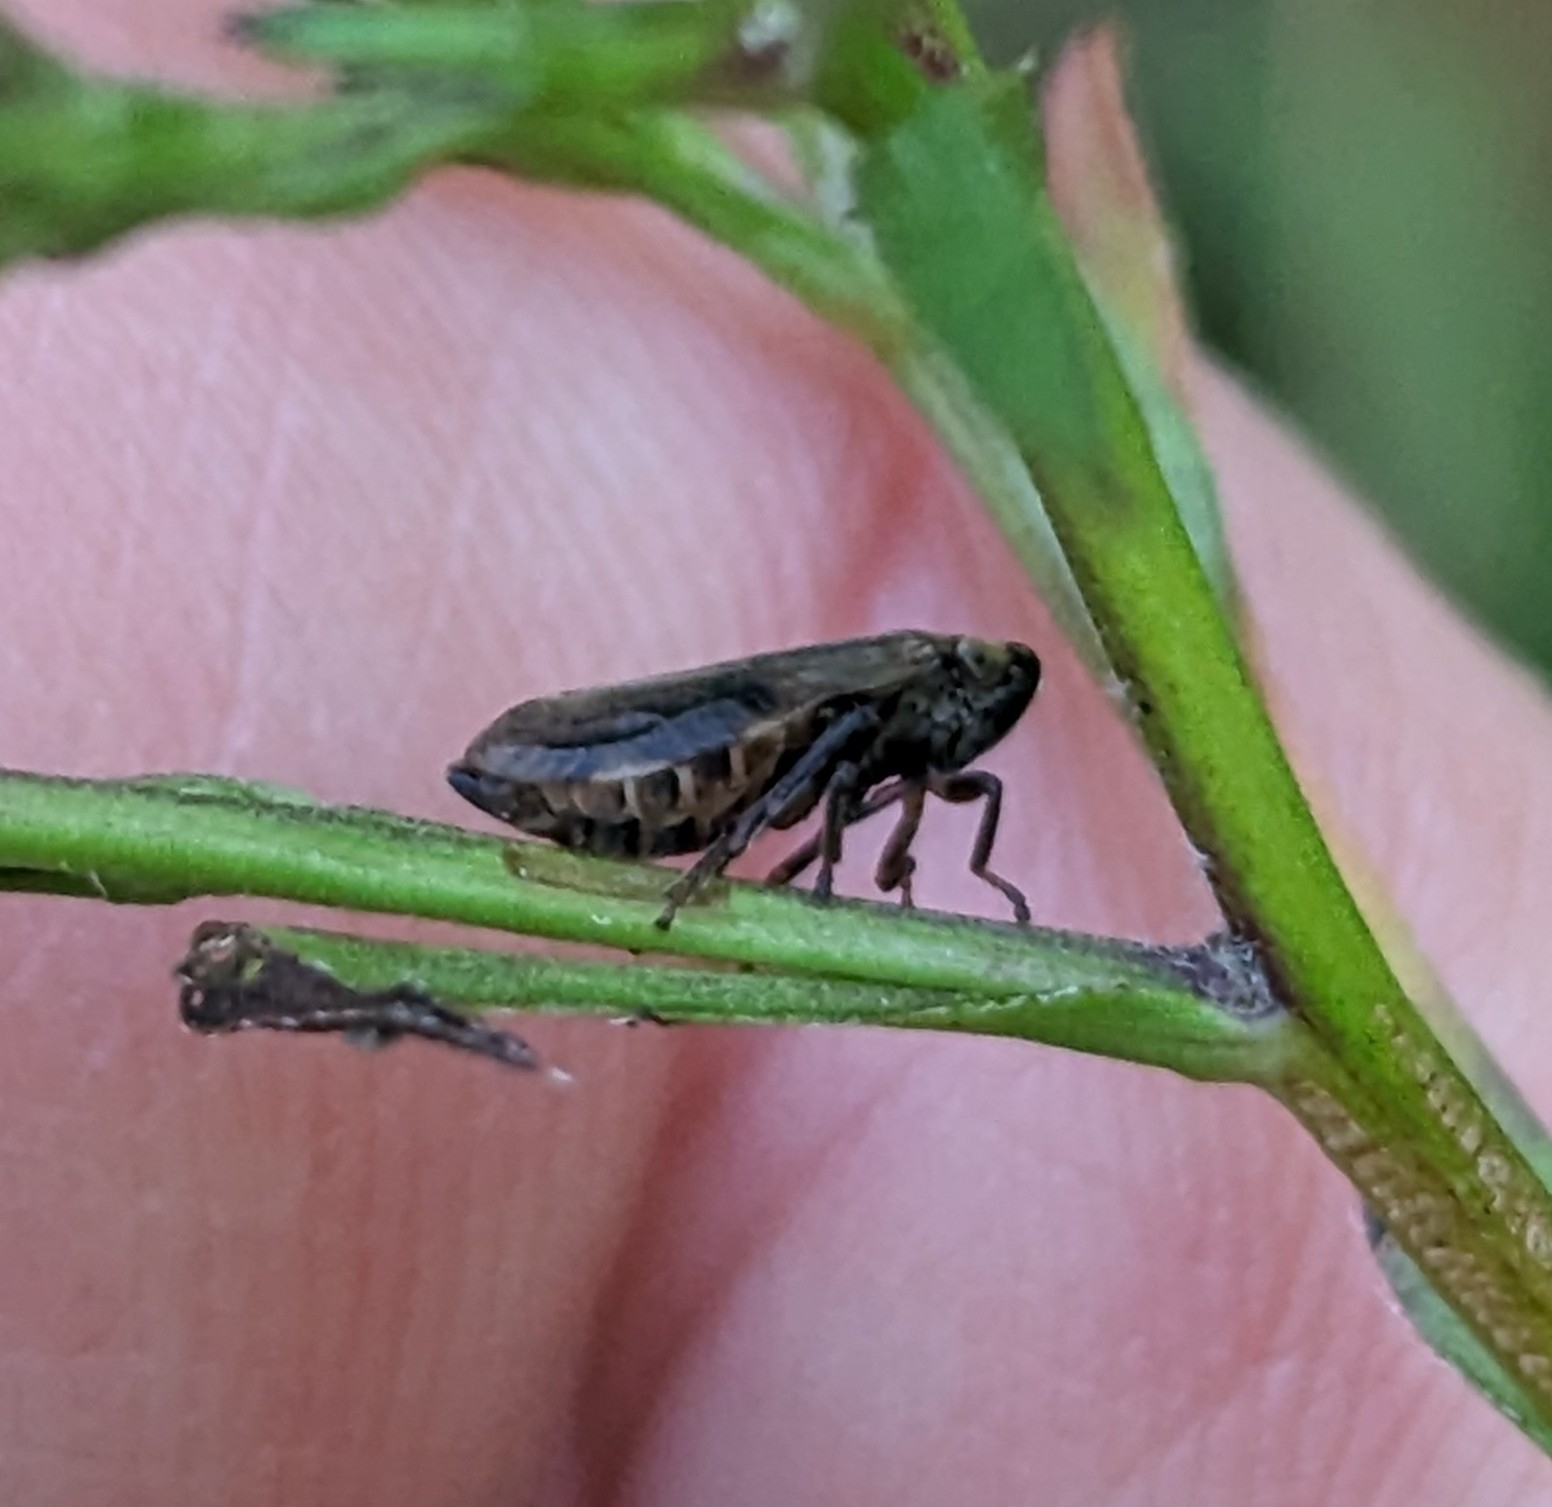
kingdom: Animalia
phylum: Arthropoda
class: Insecta
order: Hemiptera
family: Aphrophoridae
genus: Philaenus
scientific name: Philaenus spumarius
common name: Meadow spittlebug
